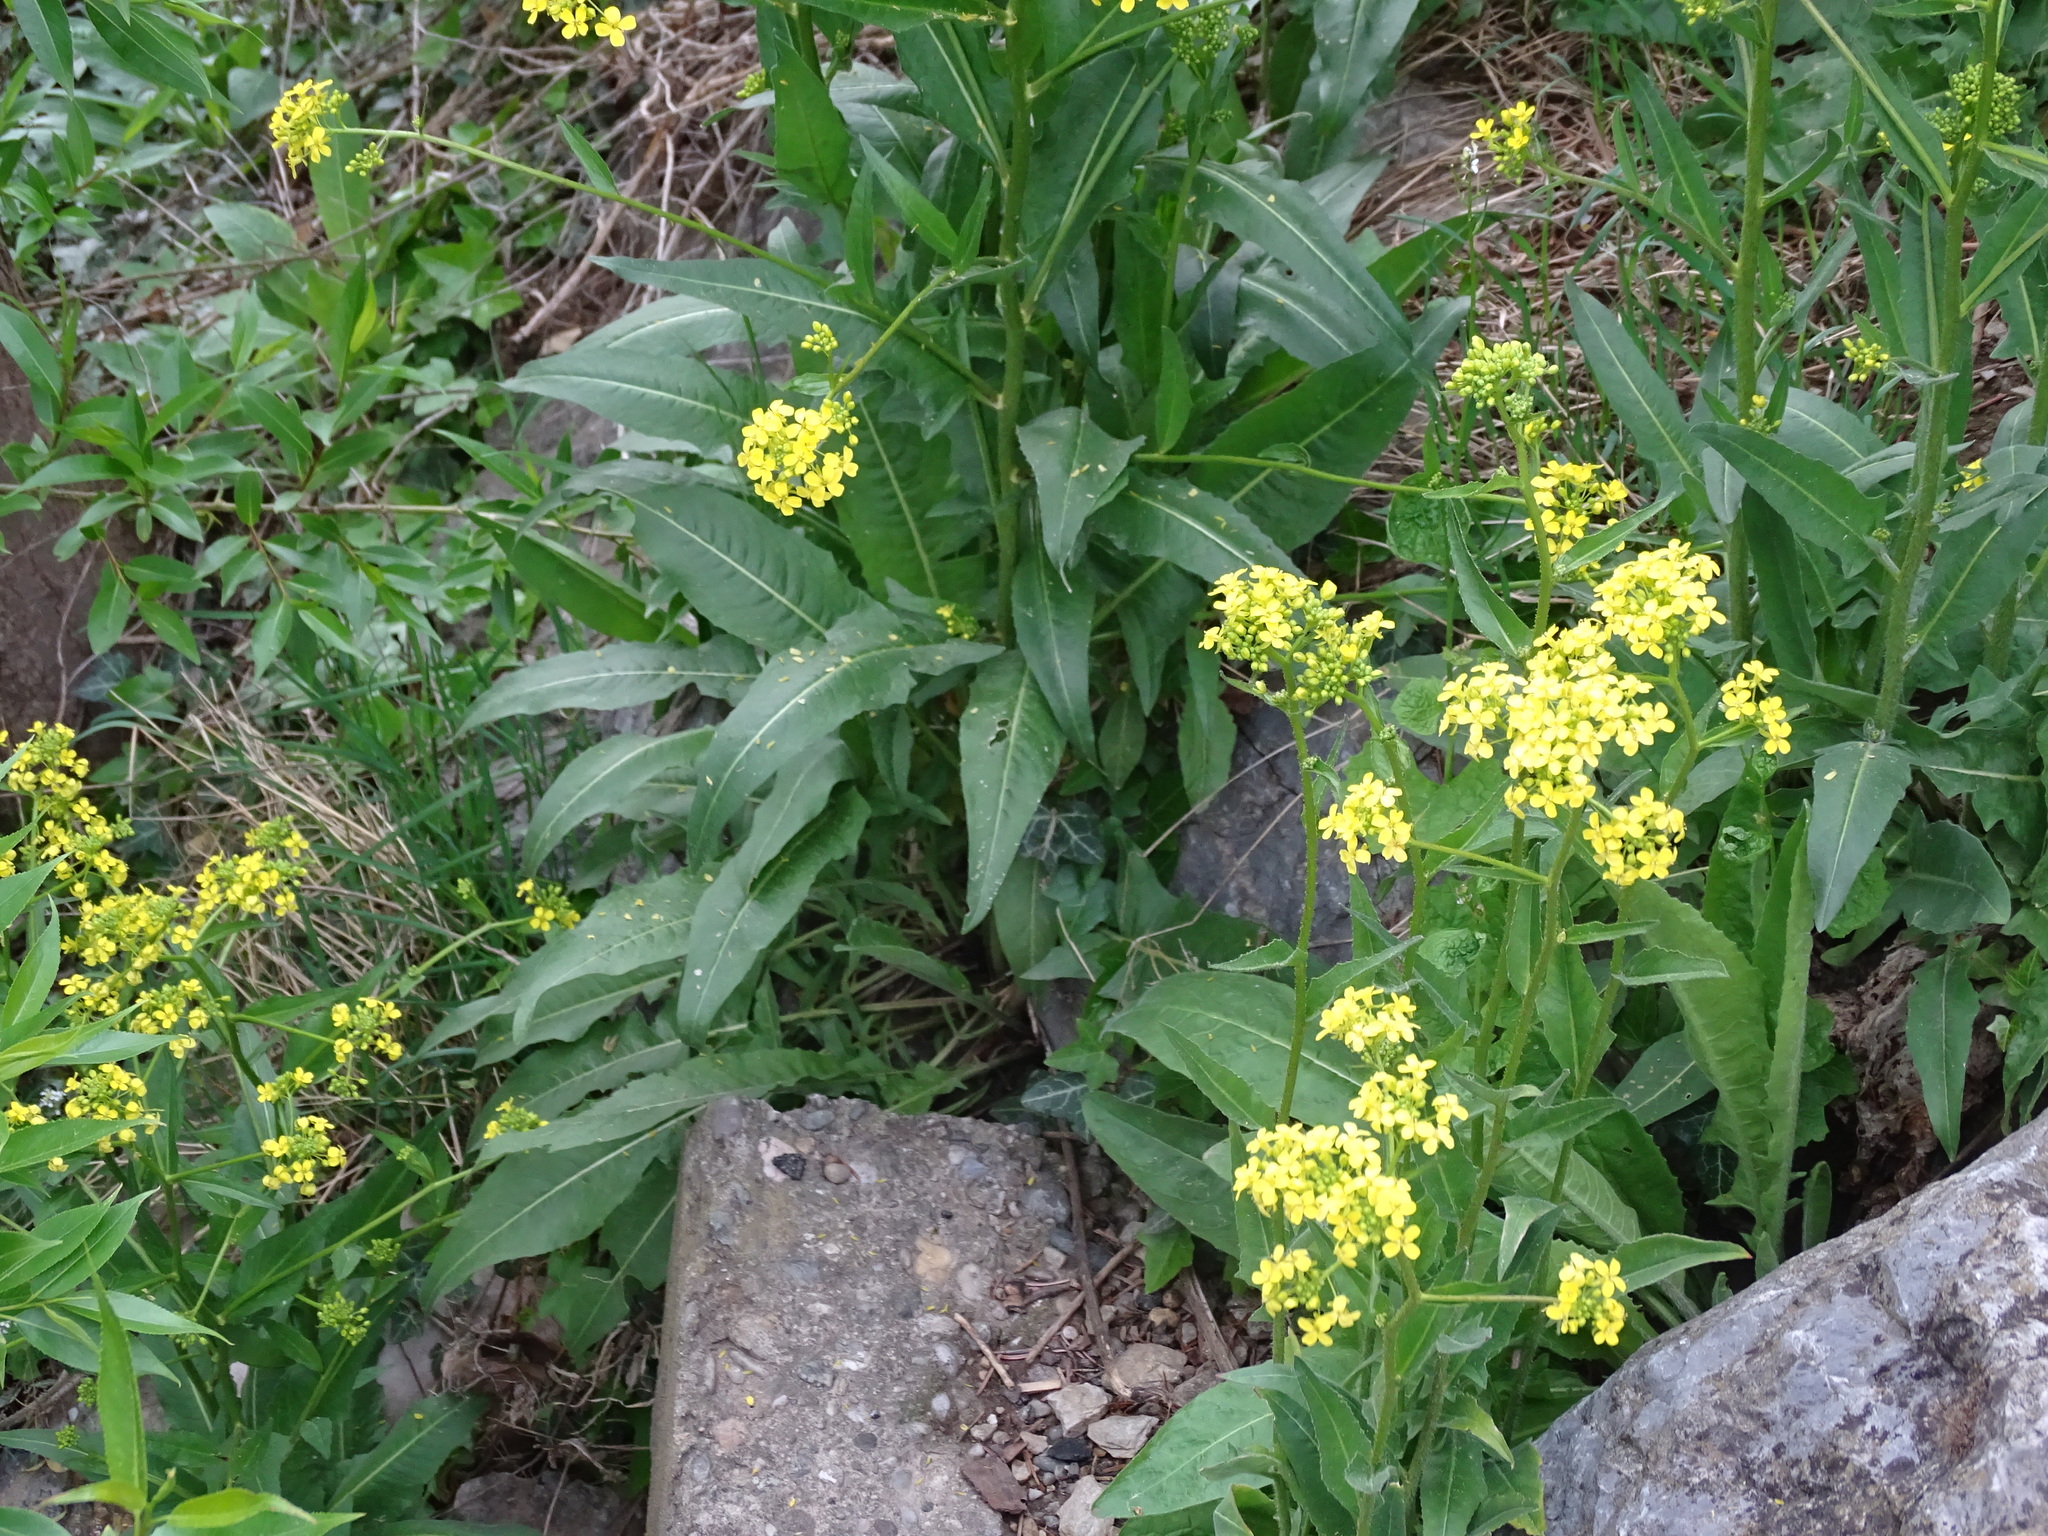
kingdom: Plantae
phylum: Tracheophyta
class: Magnoliopsida
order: Brassicales
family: Brassicaceae
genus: Bunias
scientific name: Bunias orientalis
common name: Warty-cabbage
